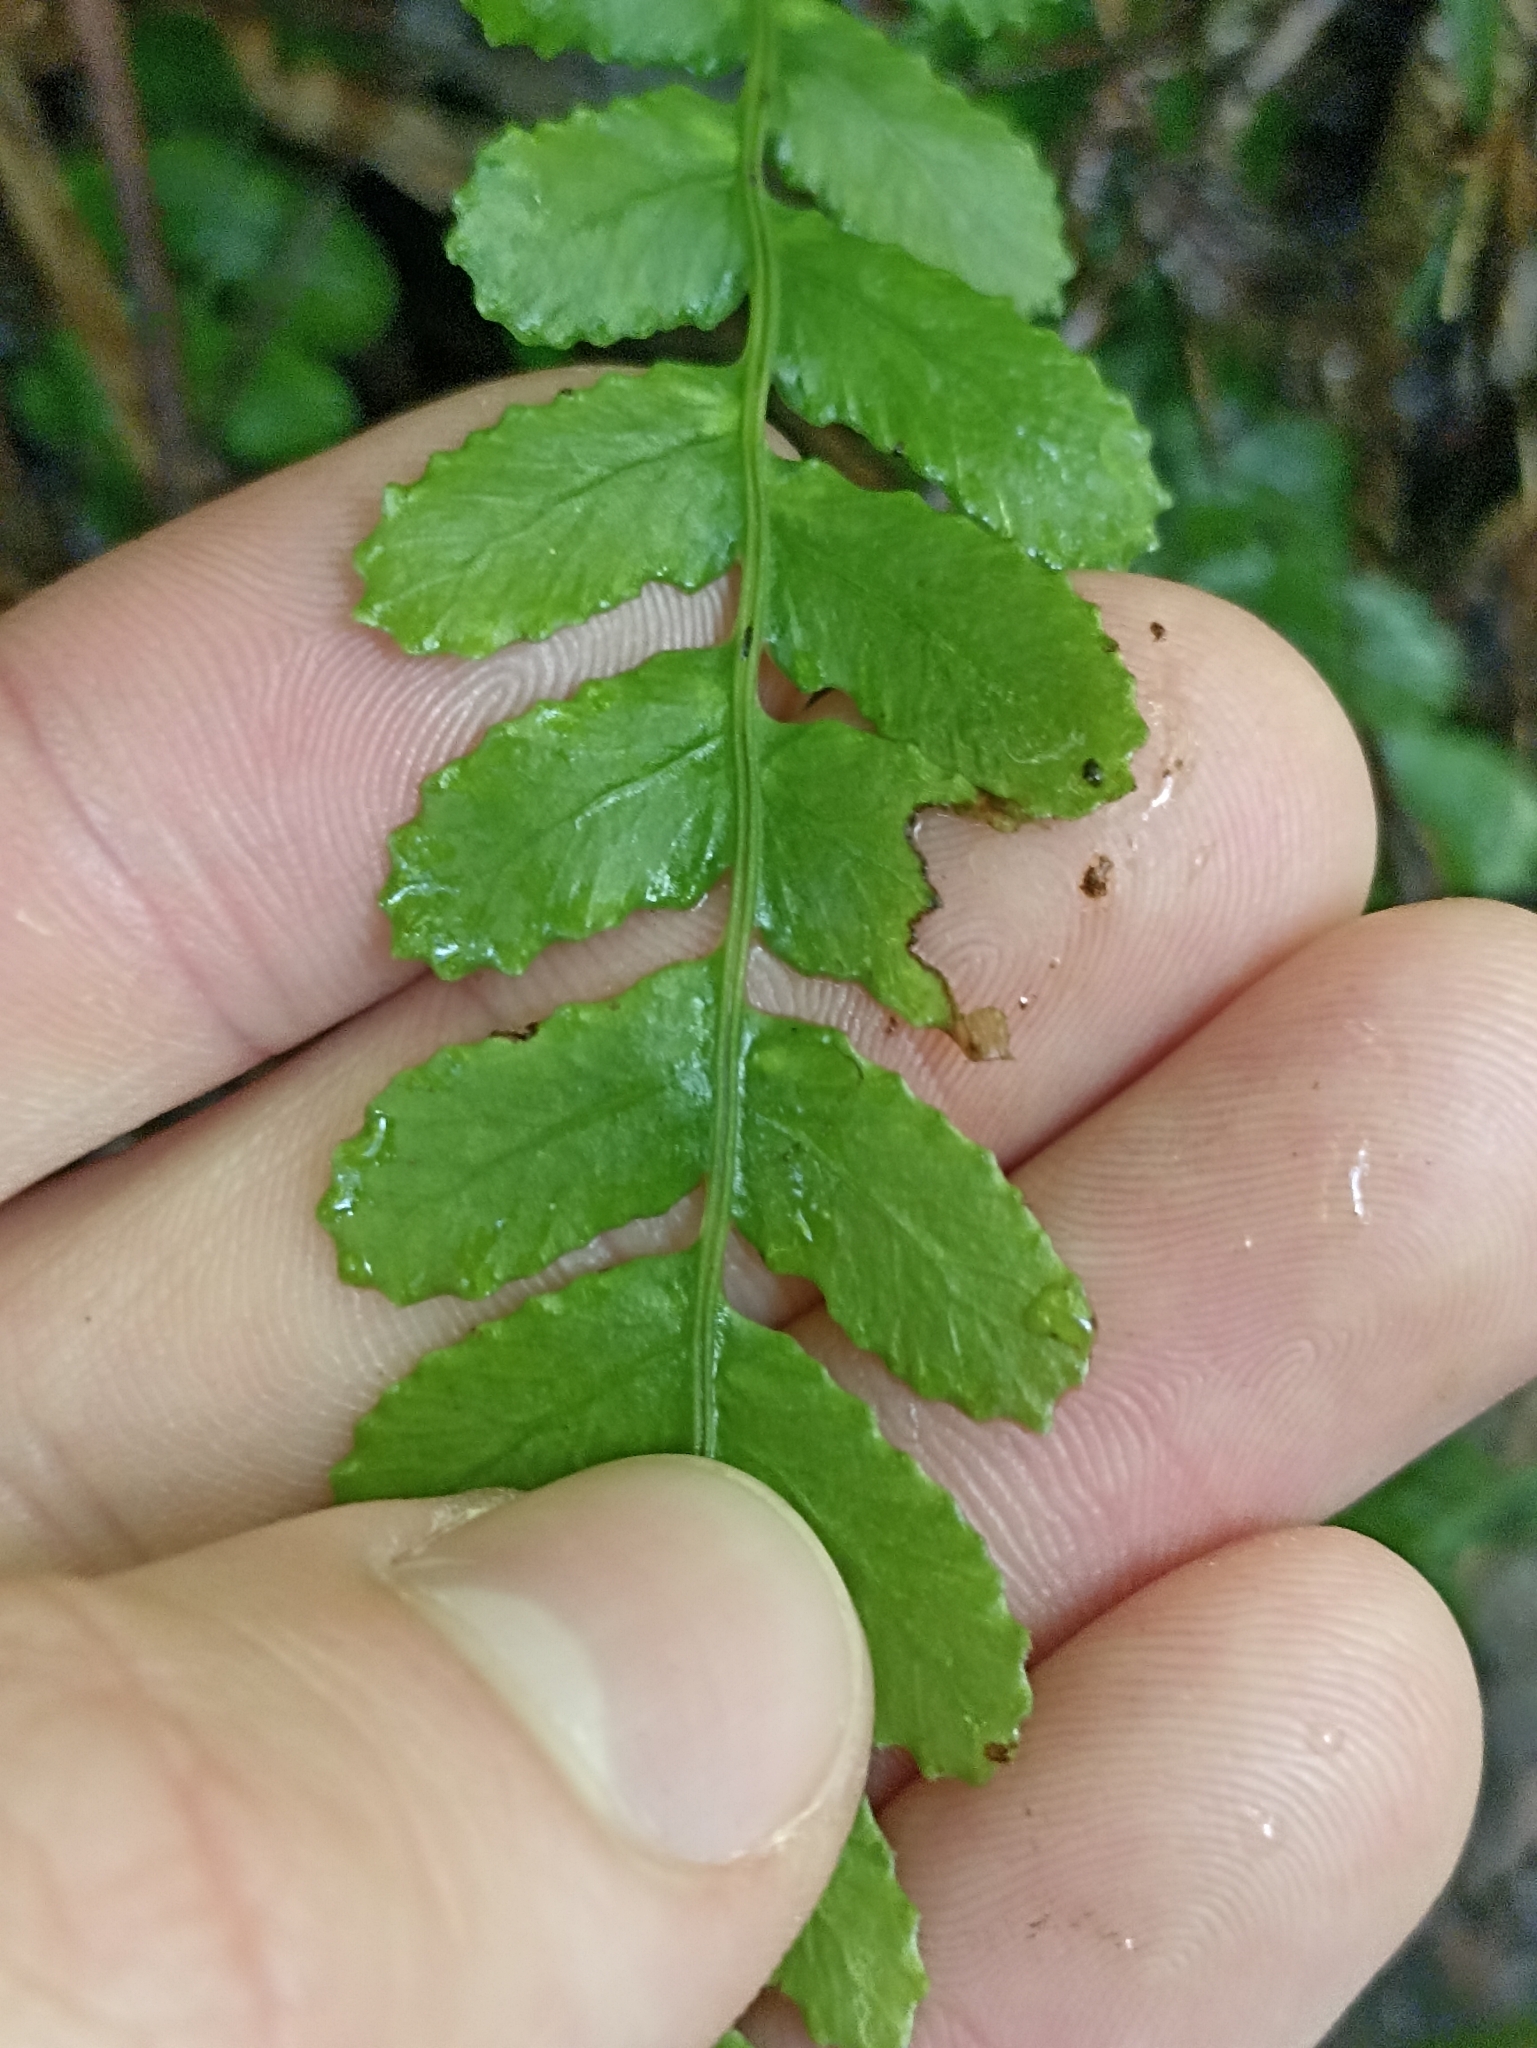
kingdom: Plantae
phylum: Tracheophyta
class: Polypodiopsida
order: Polypodiales
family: Blechnaceae
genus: Austroblechnum
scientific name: Austroblechnum membranaceum
